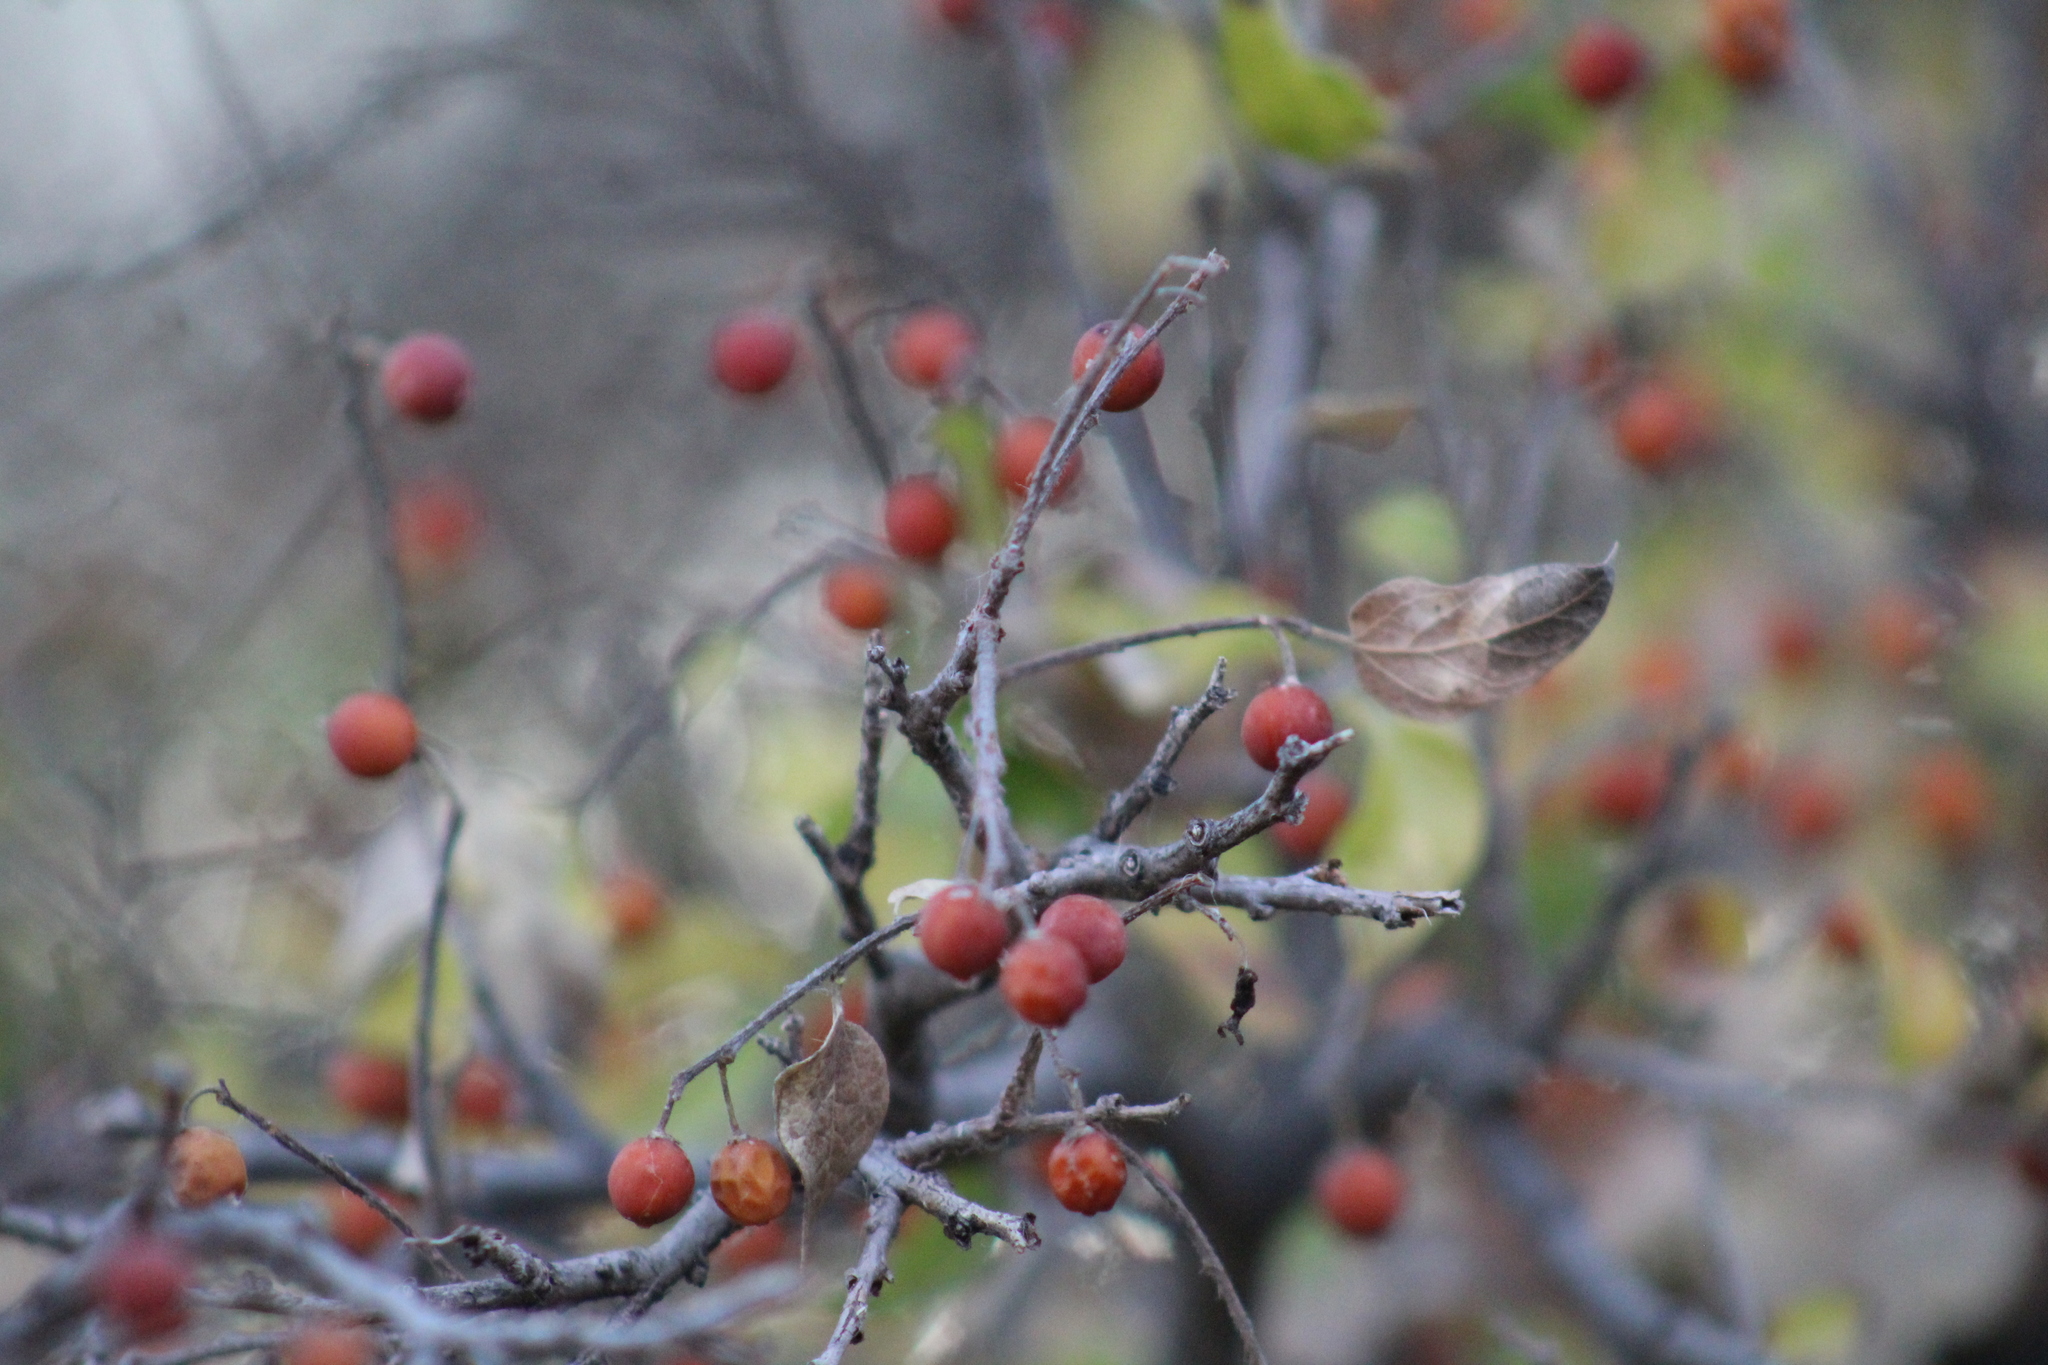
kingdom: Plantae
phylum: Tracheophyta
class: Magnoliopsida
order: Rosales
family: Cannabaceae
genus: Celtis
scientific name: Celtis reticulata
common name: Netleaf hackberry
